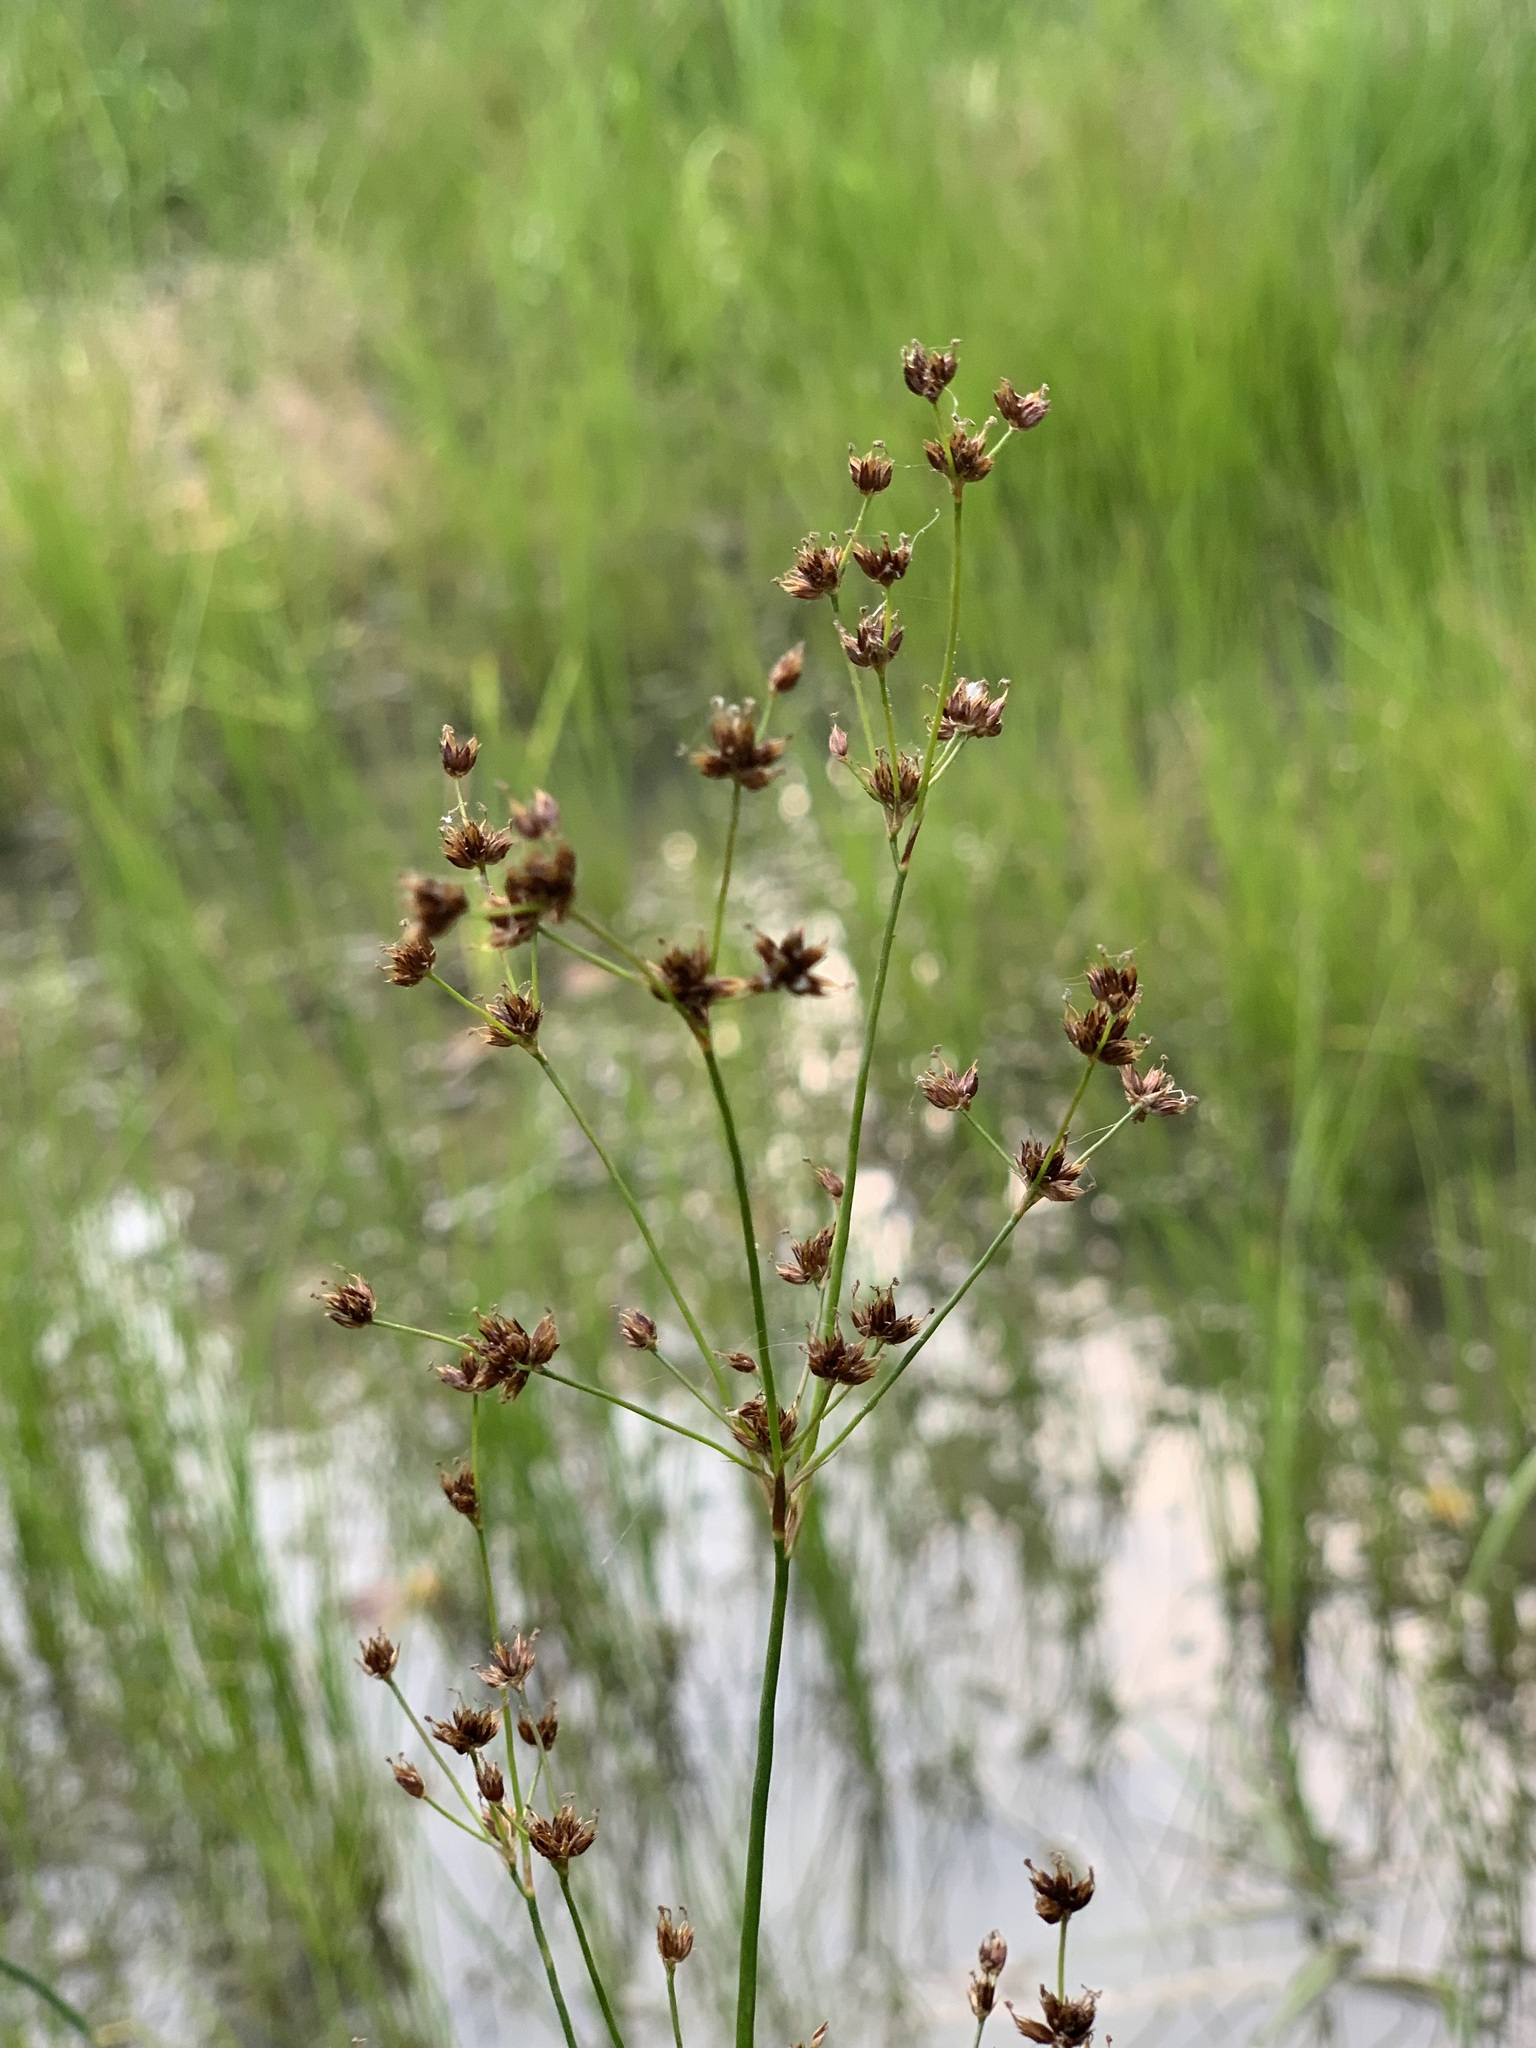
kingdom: Plantae
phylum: Tracheophyta
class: Liliopsida
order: Poales
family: Juncaceae
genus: Juncus
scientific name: Juncus articulatus
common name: Jointed rush
